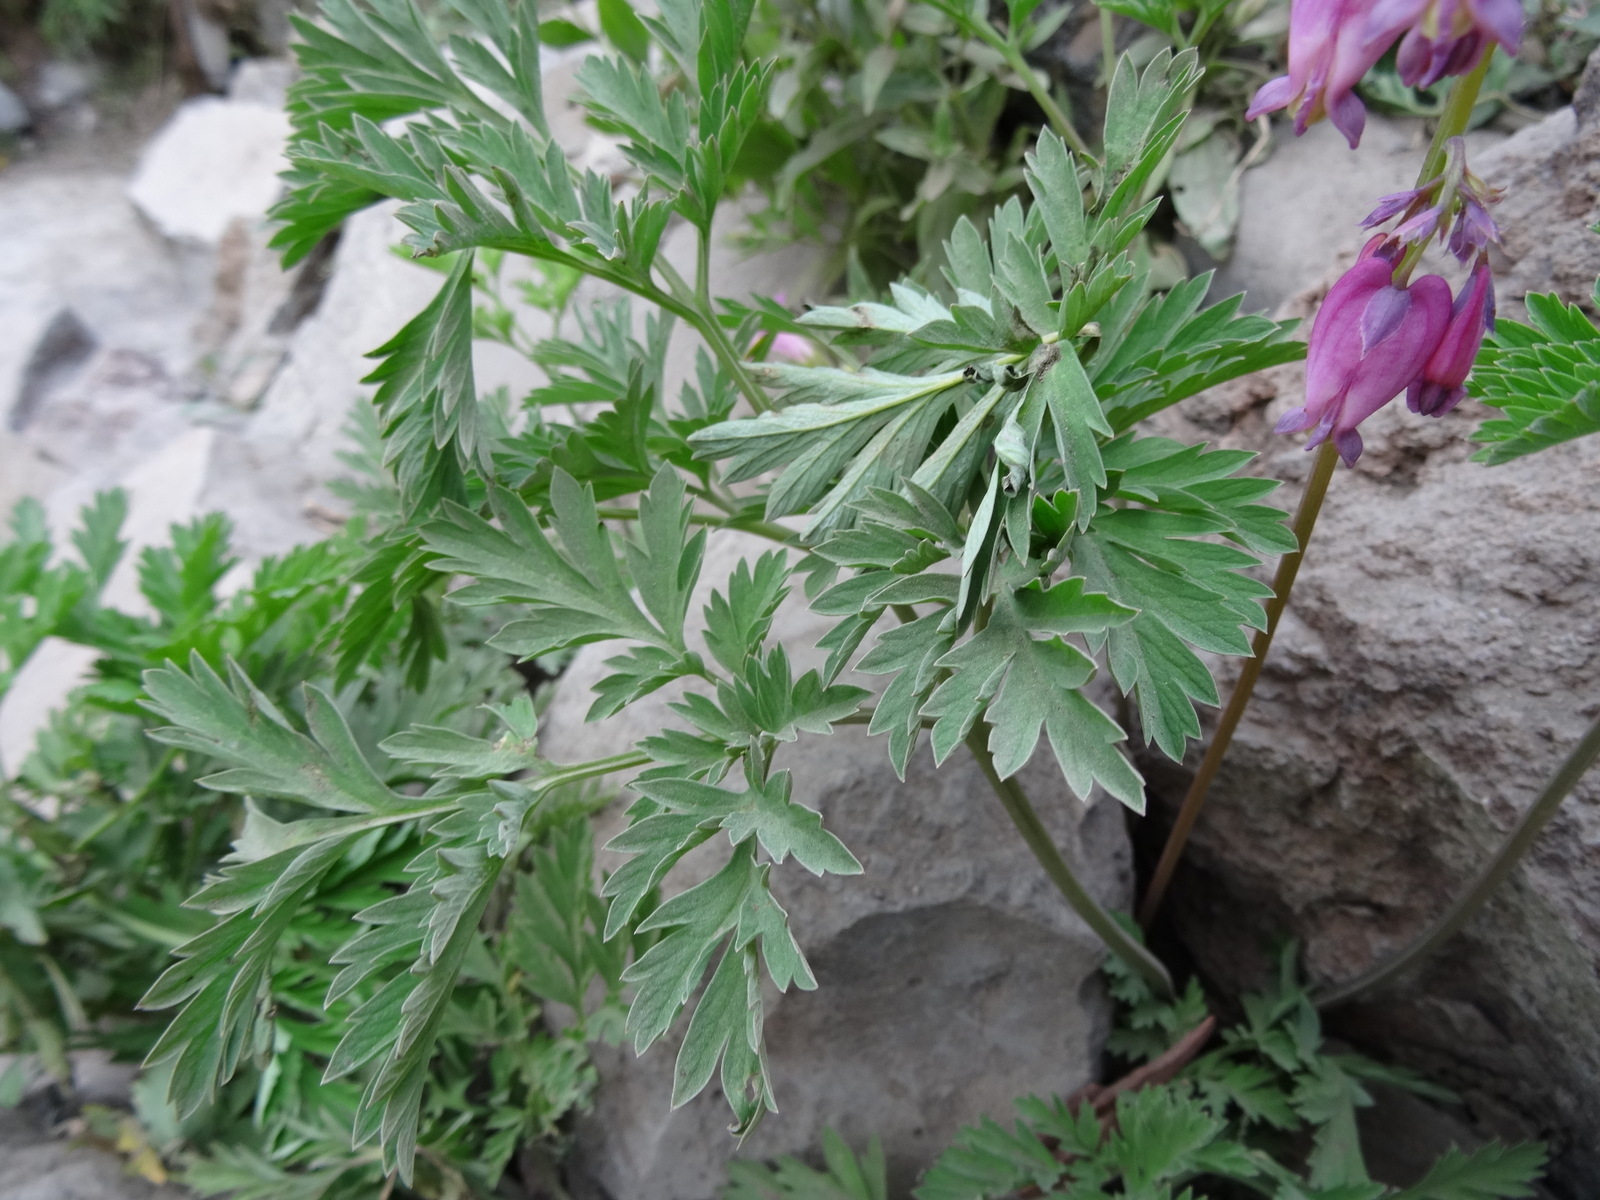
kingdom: Plantae
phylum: Tracheophyta
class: Magnoliopsida
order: Ranunculales
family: Papaveraceae
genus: Dicentra
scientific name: Dicentra formosa
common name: Bleeding-heart
